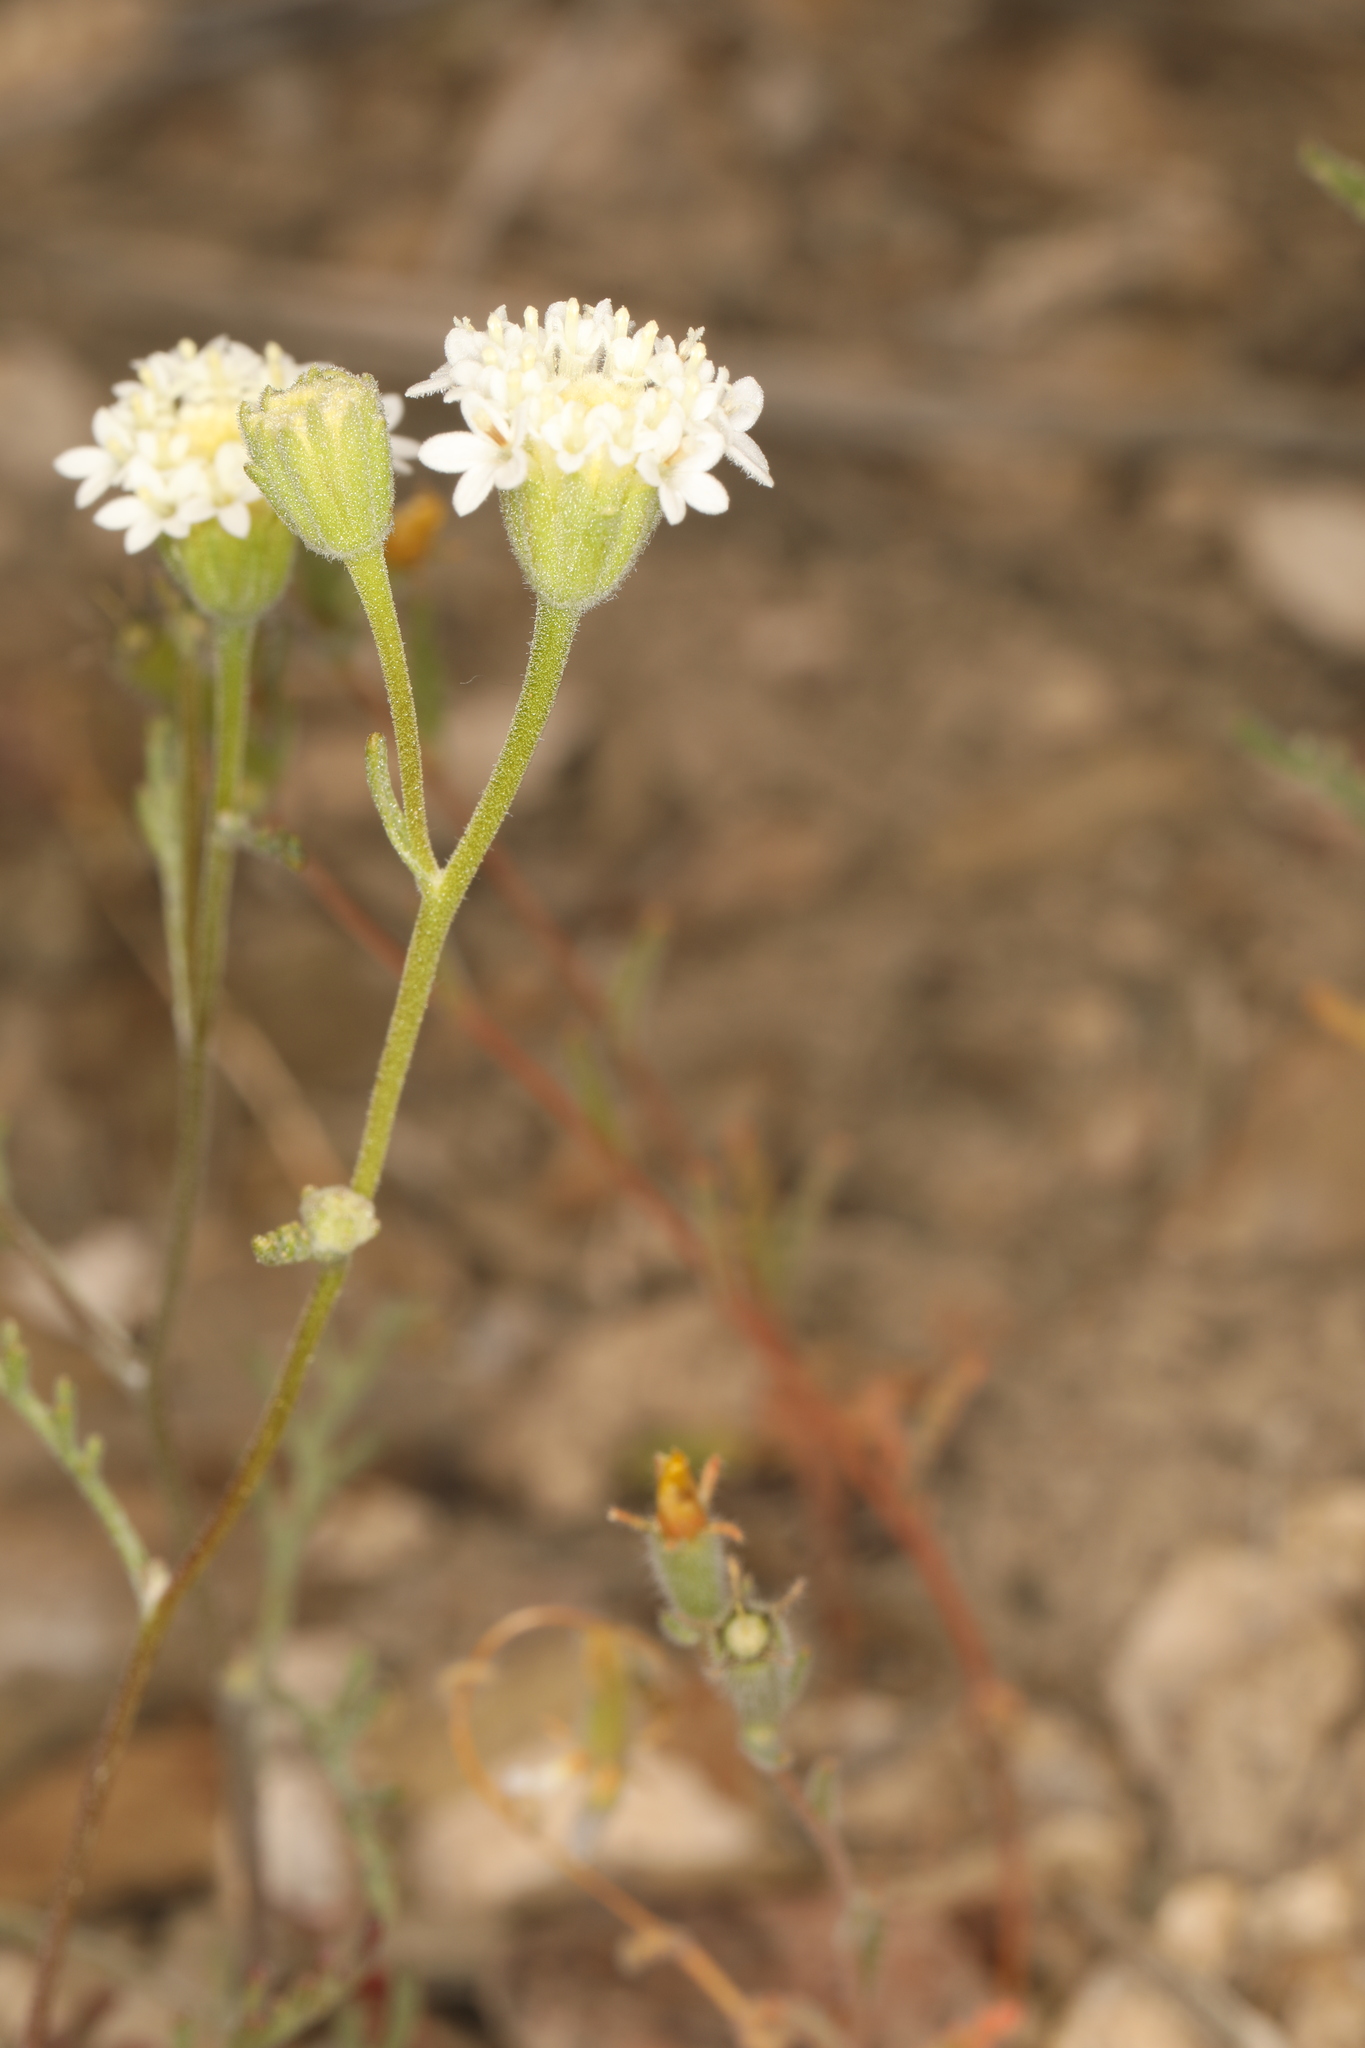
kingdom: Plantae
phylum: Tracheophyta
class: Magnoliopsida
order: Asterales
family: Asteraceae
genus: Chaenactis
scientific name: Chaenactis stevioides
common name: Desert pincushion
